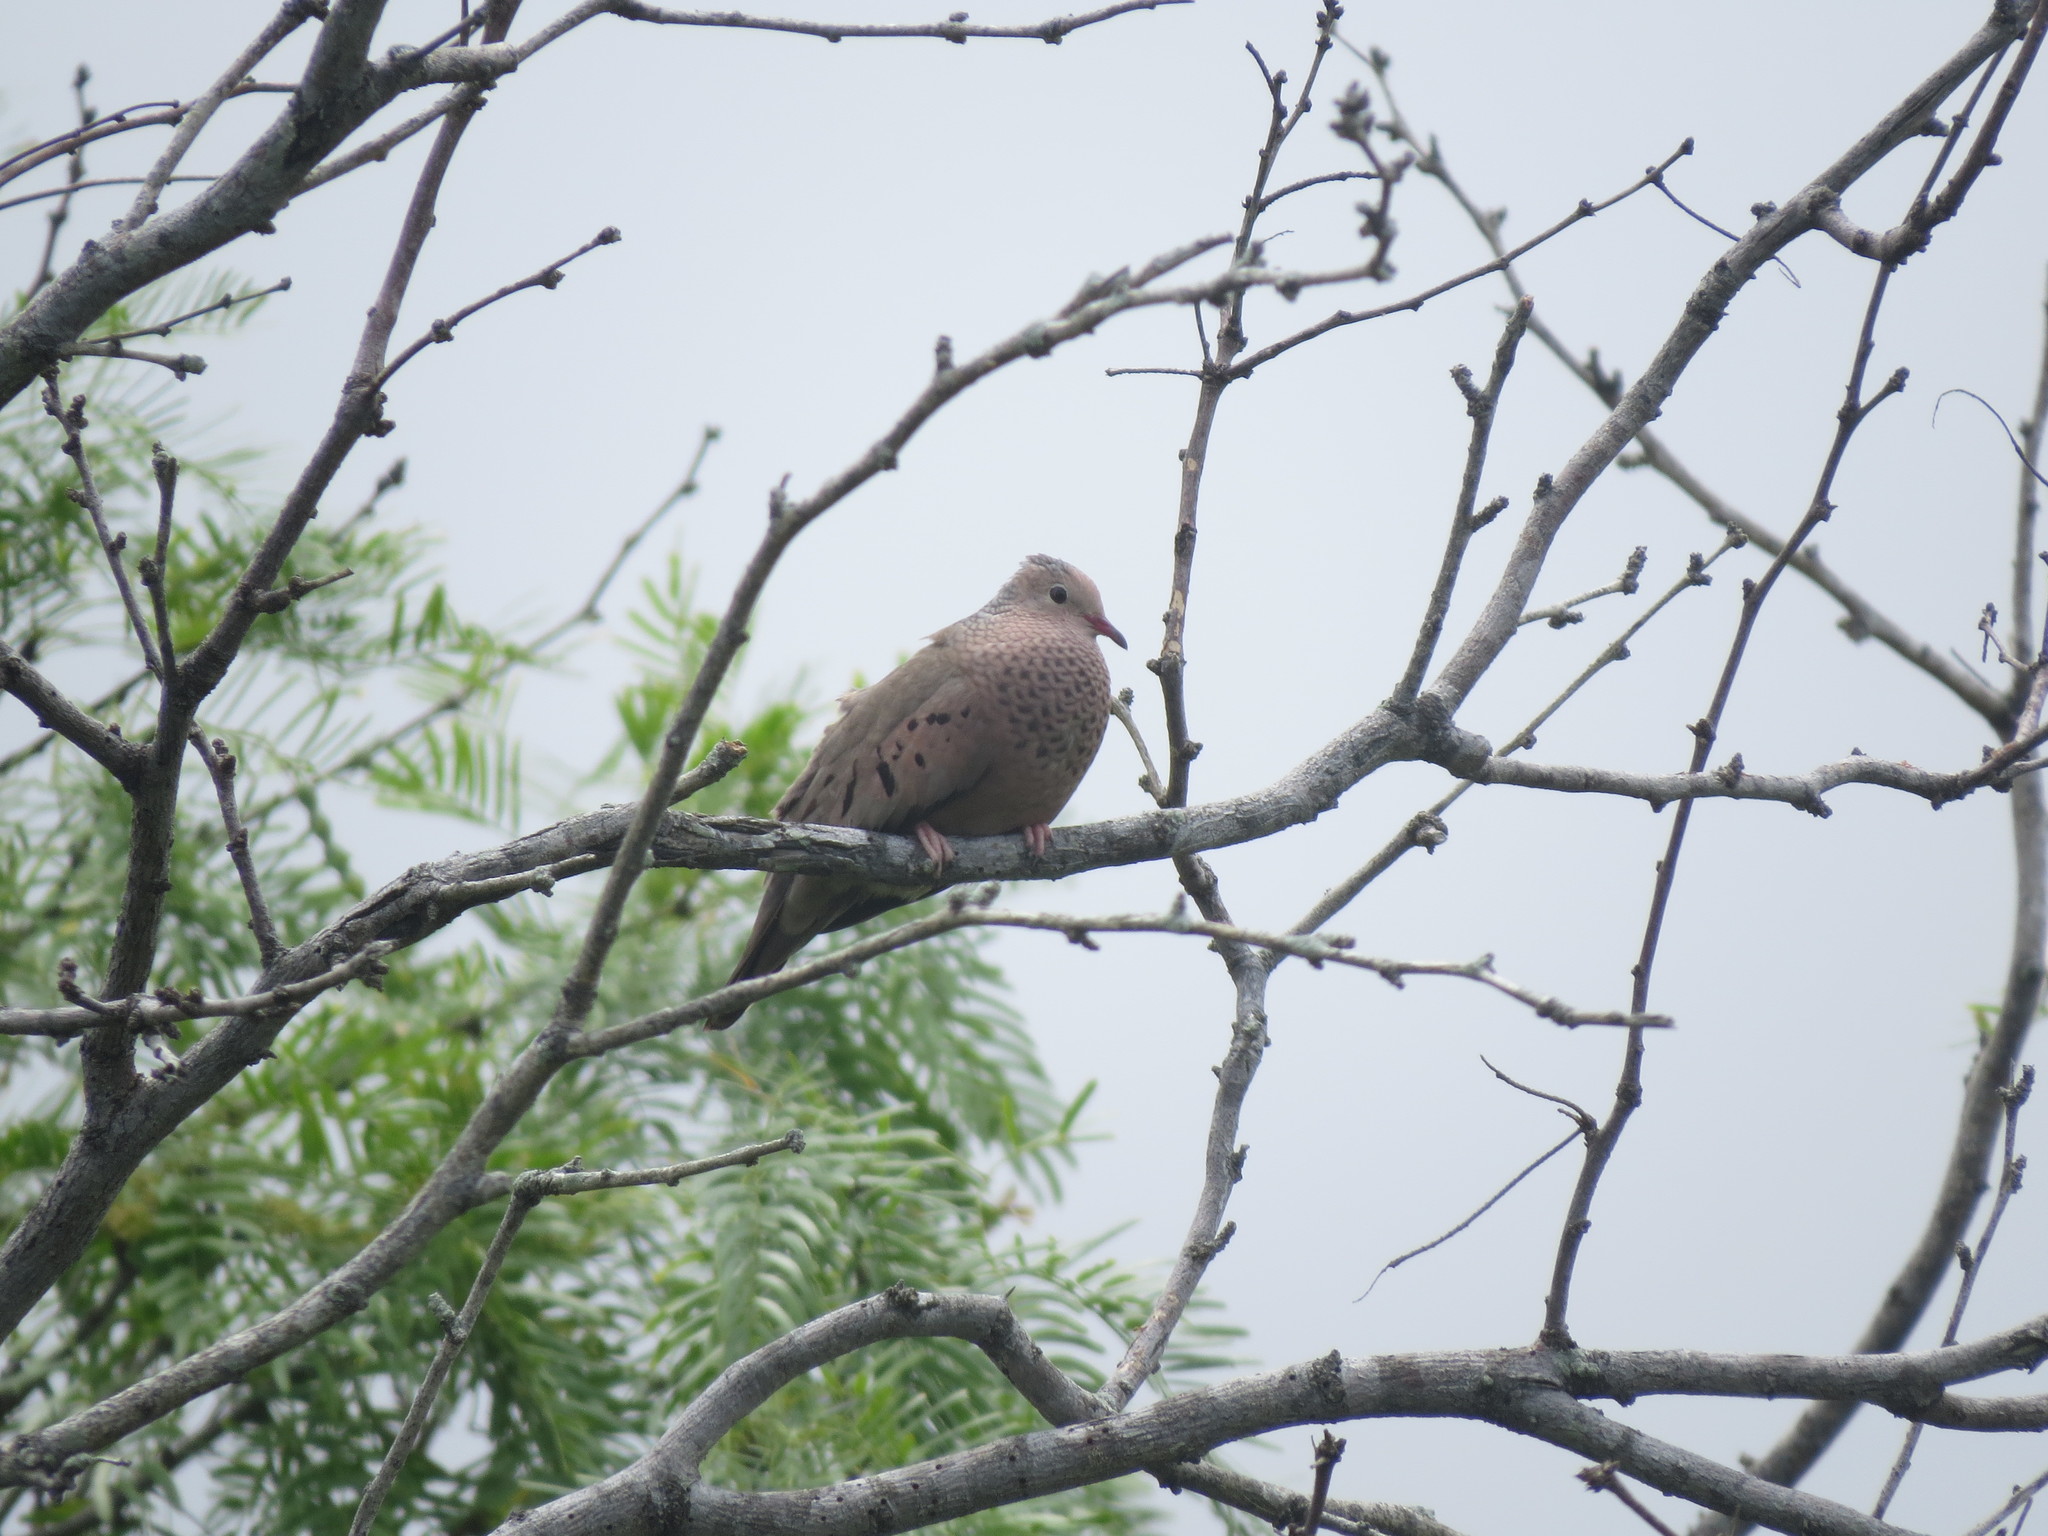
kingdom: Animalia
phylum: Chordata
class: Aves
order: Columbiformes
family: Columbidae
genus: Columbina
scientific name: Columbina passerina
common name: Common ground-dove
